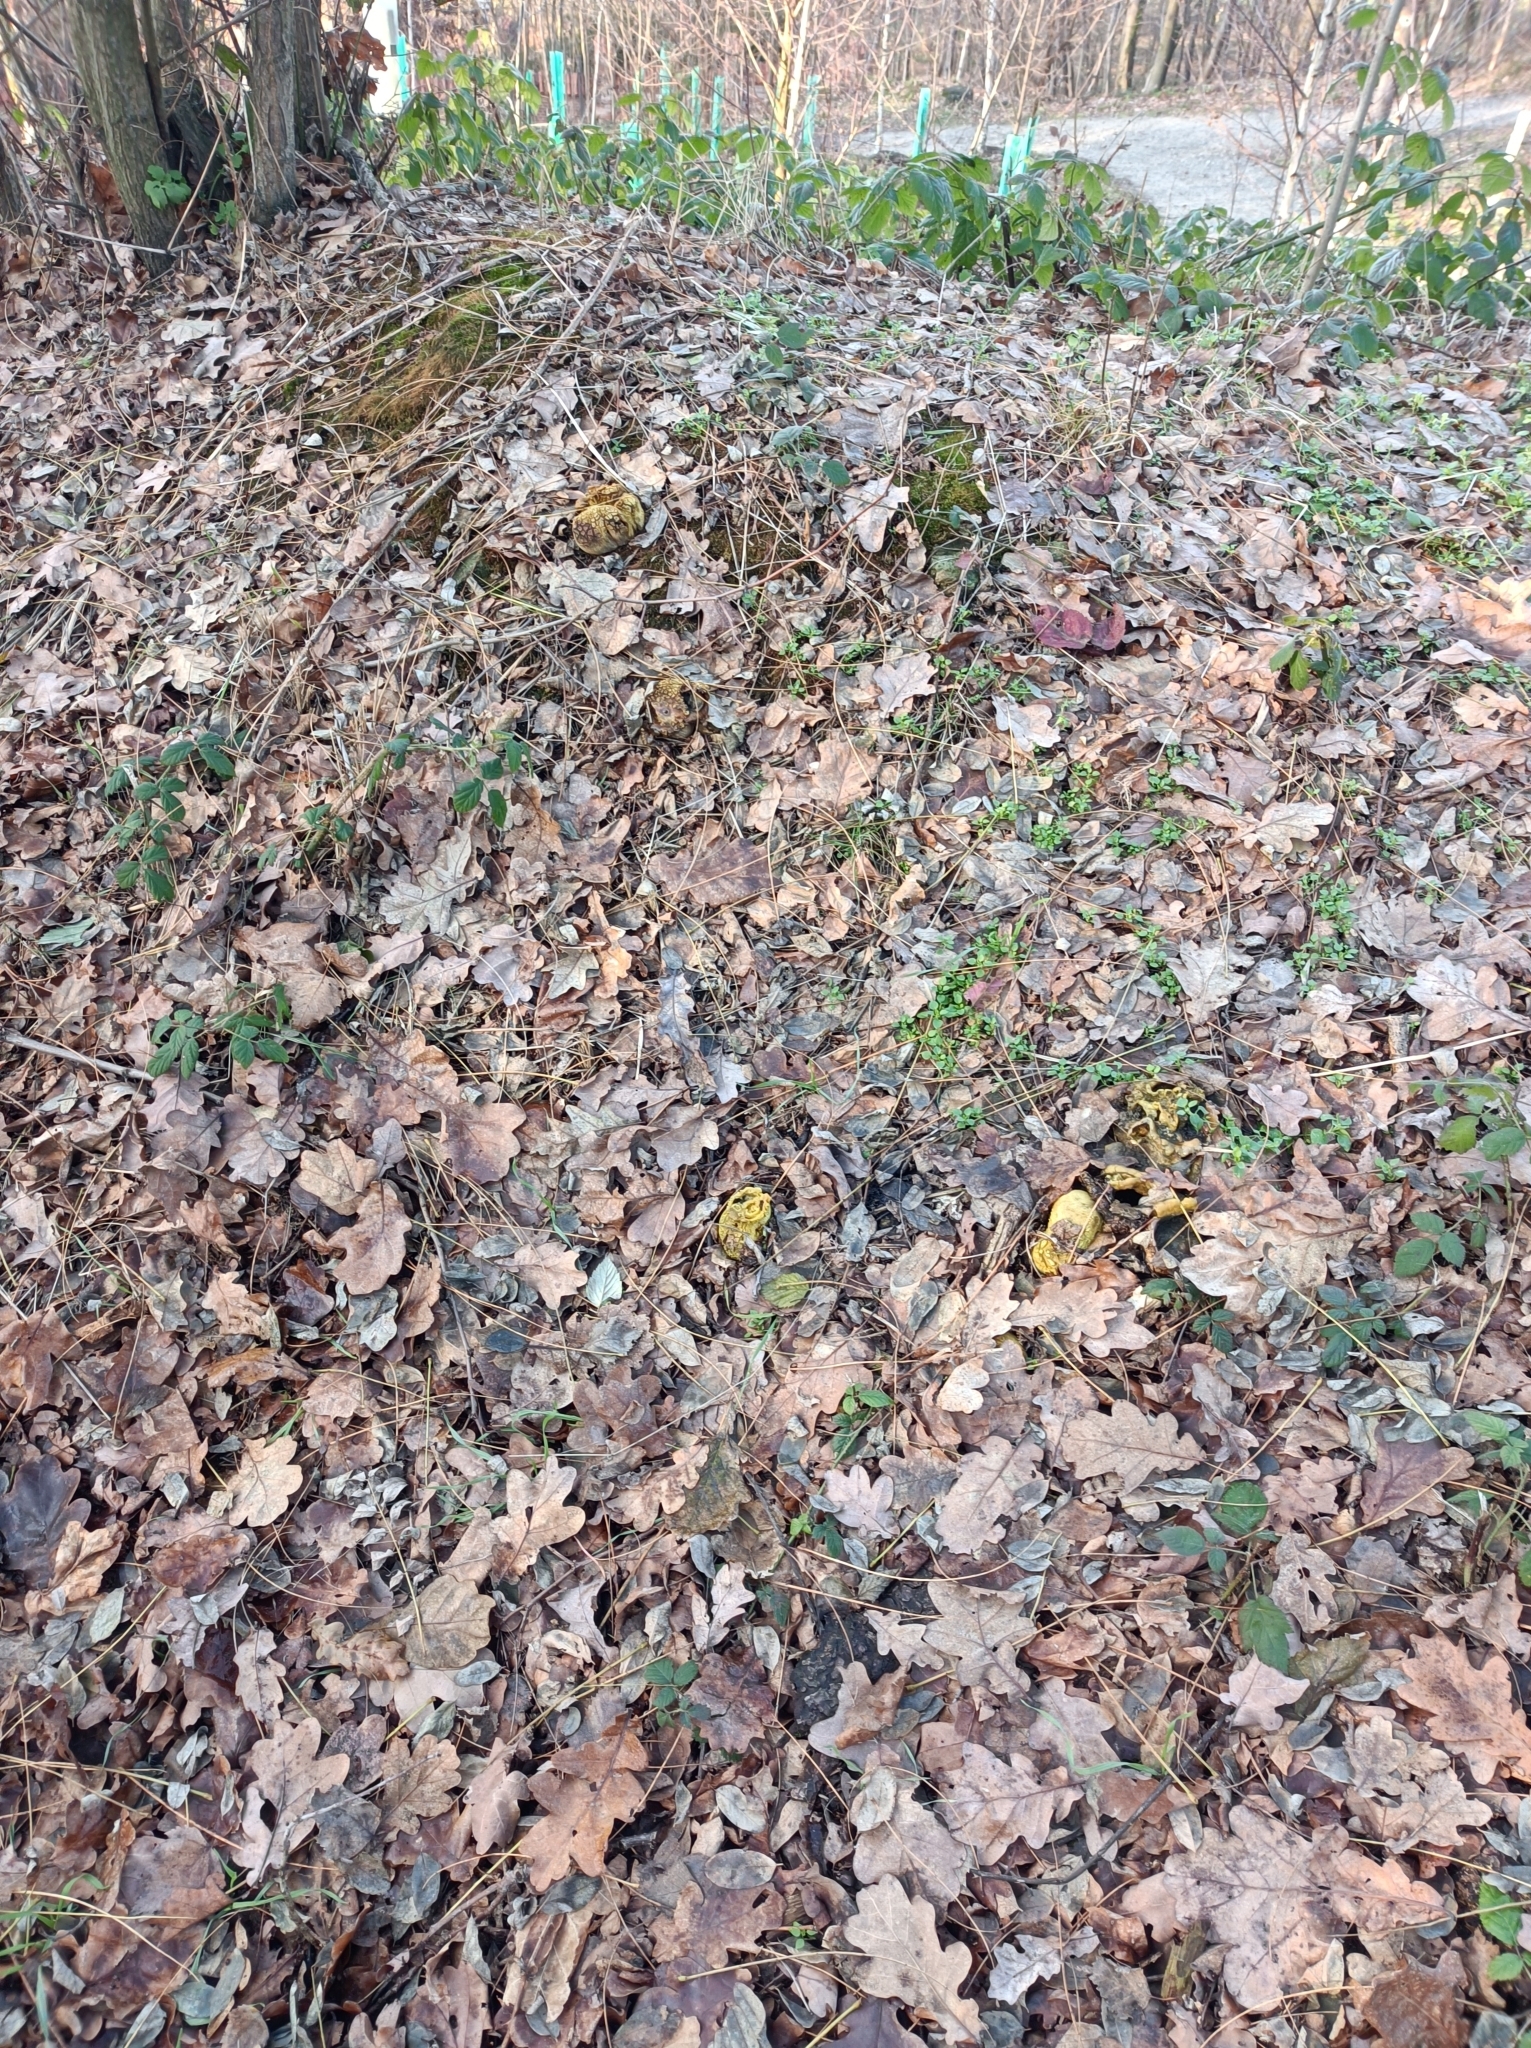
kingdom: Fungi
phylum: Basidiomycota
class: Agaricomycetes
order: Boletales
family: Sclerodermataceae
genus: Scleroderma
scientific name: Scleroderma citrinum
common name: Common earthball
